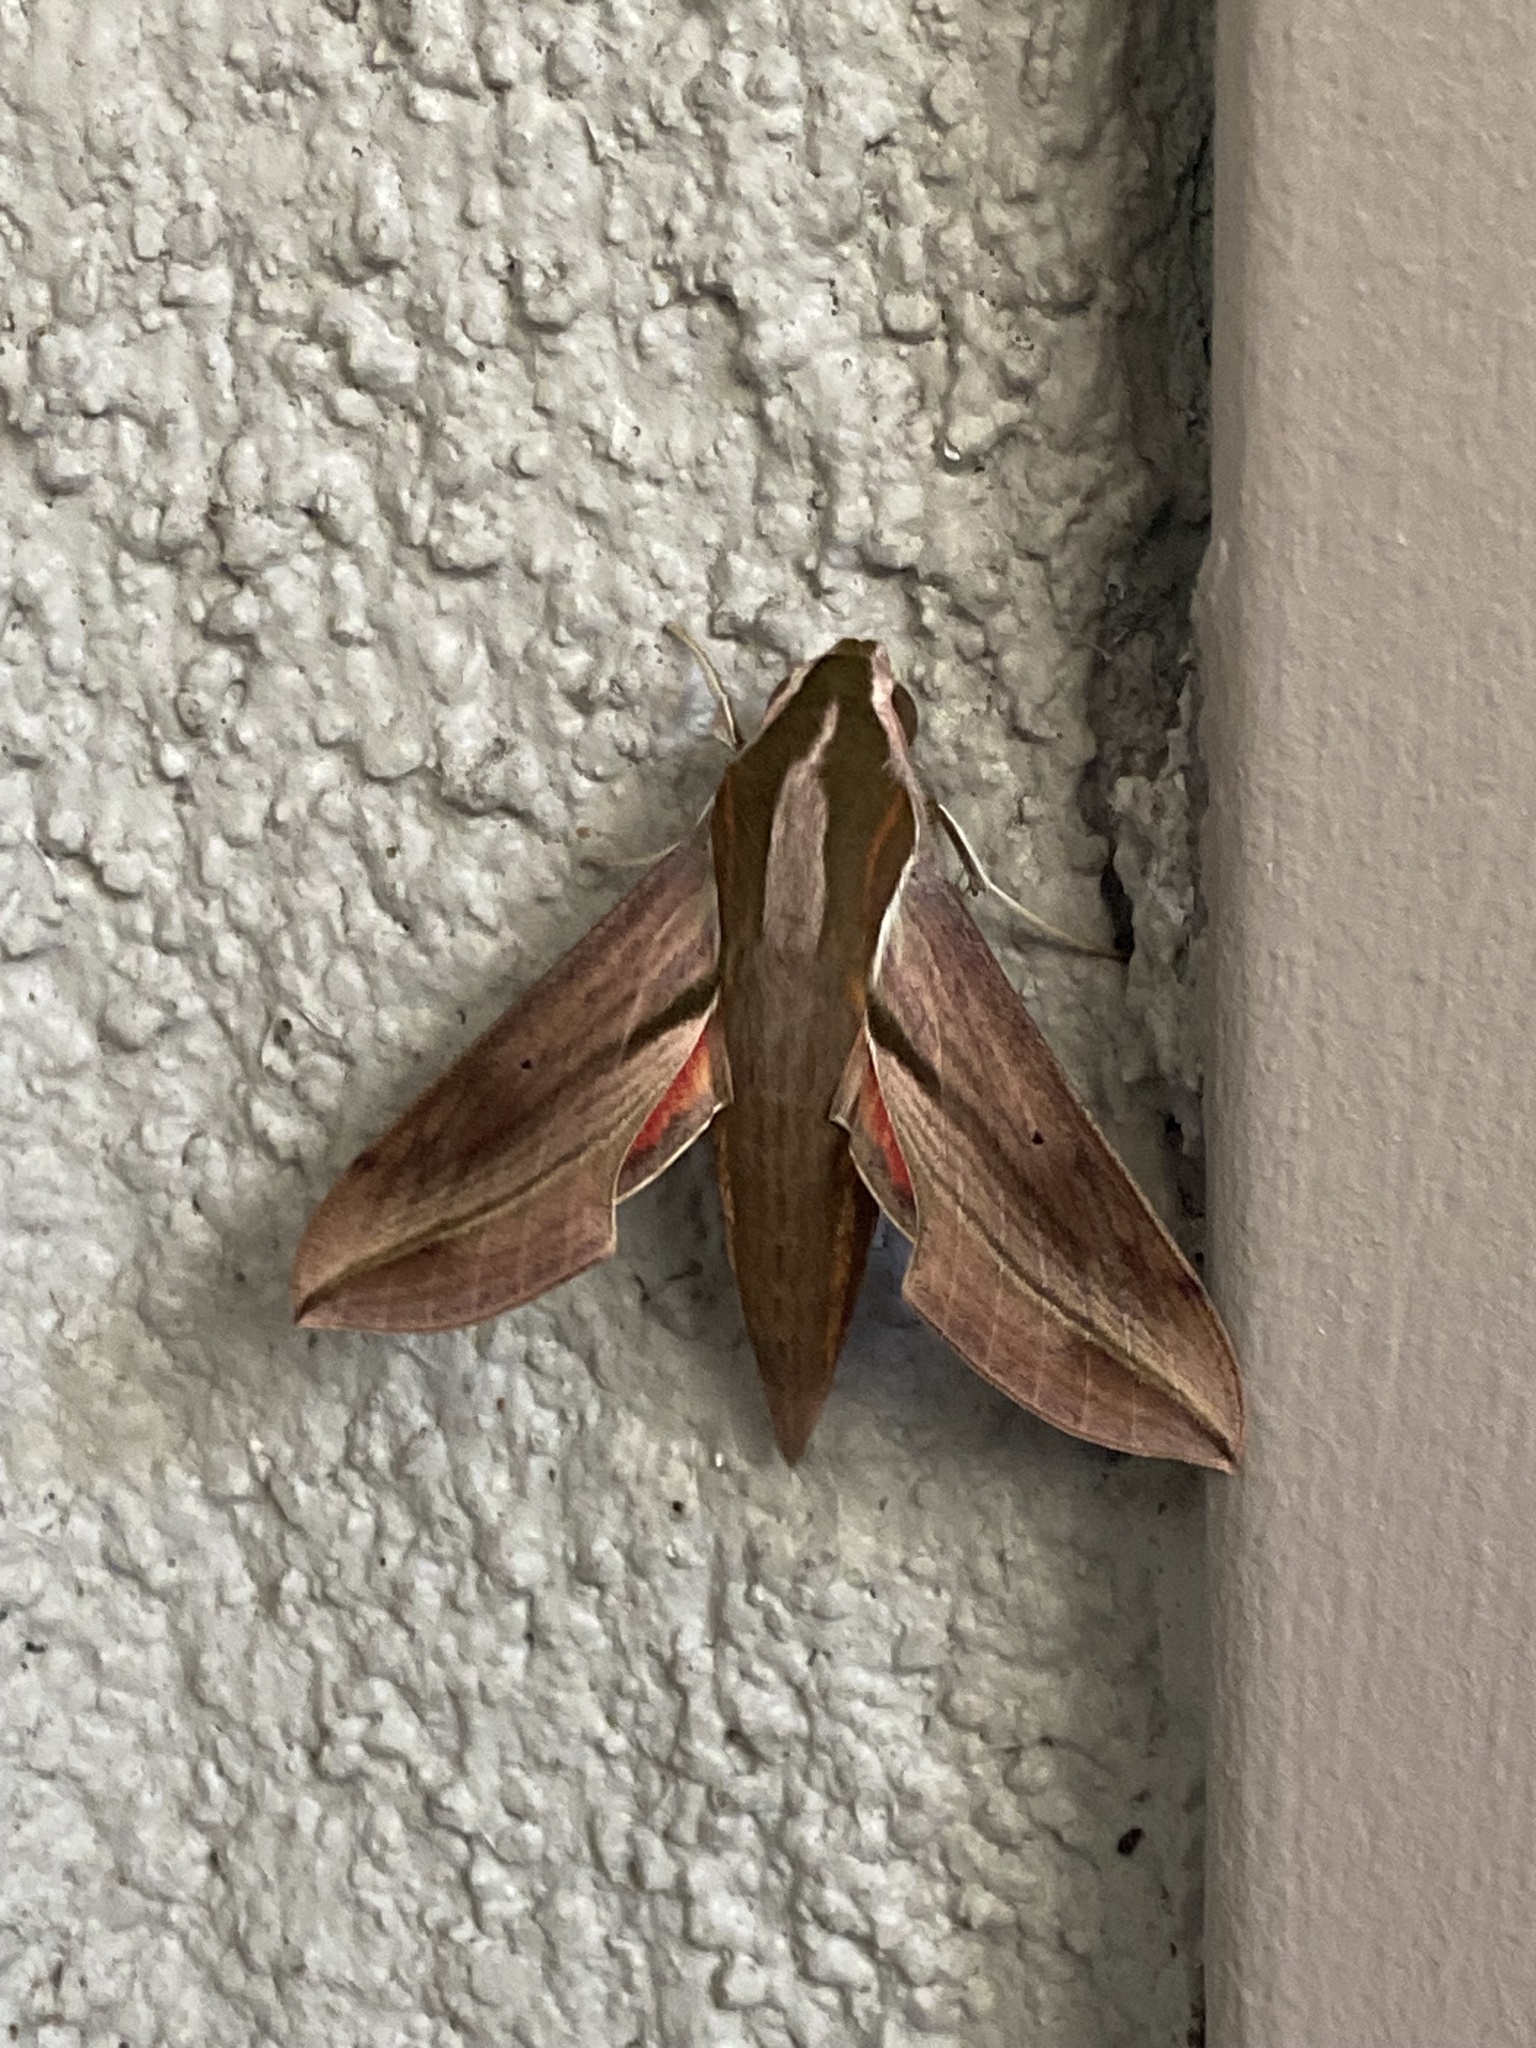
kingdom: Animalia
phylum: Arthropoda
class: Insecta
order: Lepidoptera
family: Sphingidae
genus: Hippotion
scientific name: Hippotion rosetta
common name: Vine hawk moth
